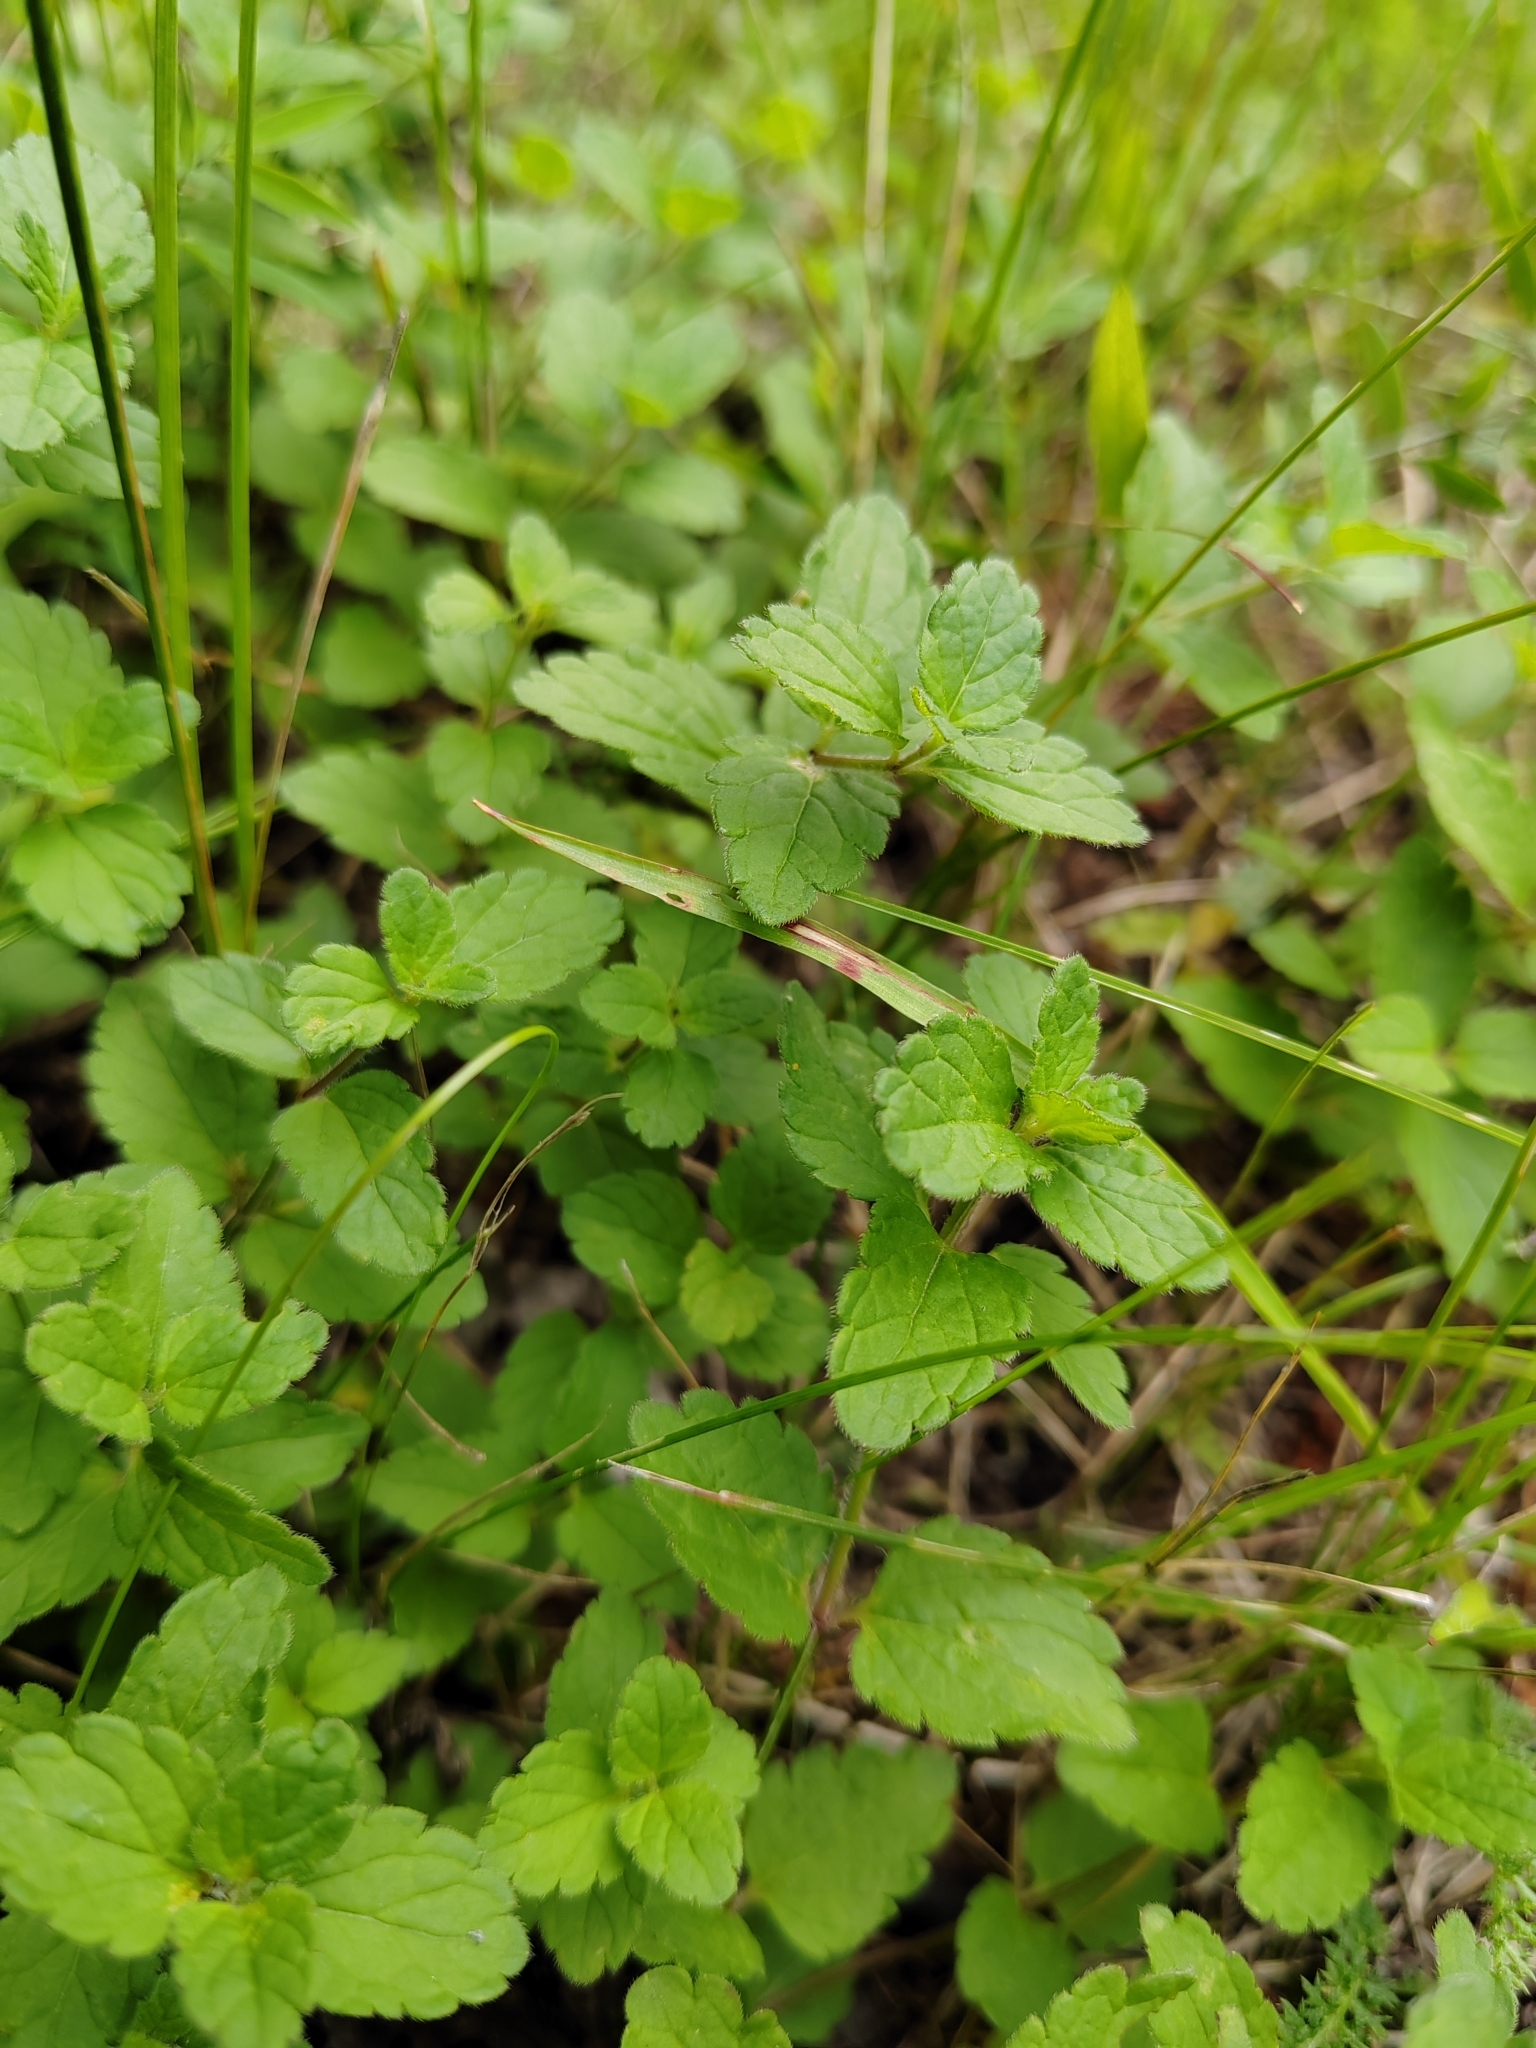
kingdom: Plantae
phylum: Tracheophyta
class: Magnoliopsida
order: Lamiales
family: Plantaginaceae
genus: Veronica
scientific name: Veronica chamaedrys
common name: Germander speedwell
